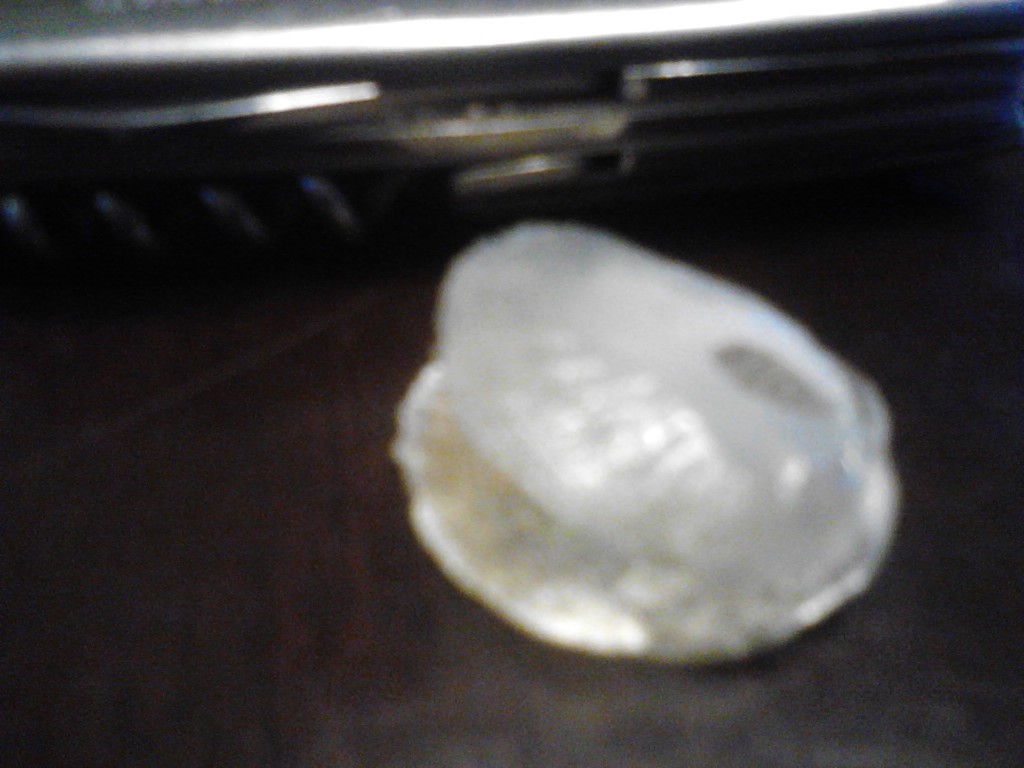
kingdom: Animalia
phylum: Mollusca
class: Bivalvia
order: Pectinida
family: Anomiidae
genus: Anomia
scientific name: Anomia simplex
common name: Common jingle shell
